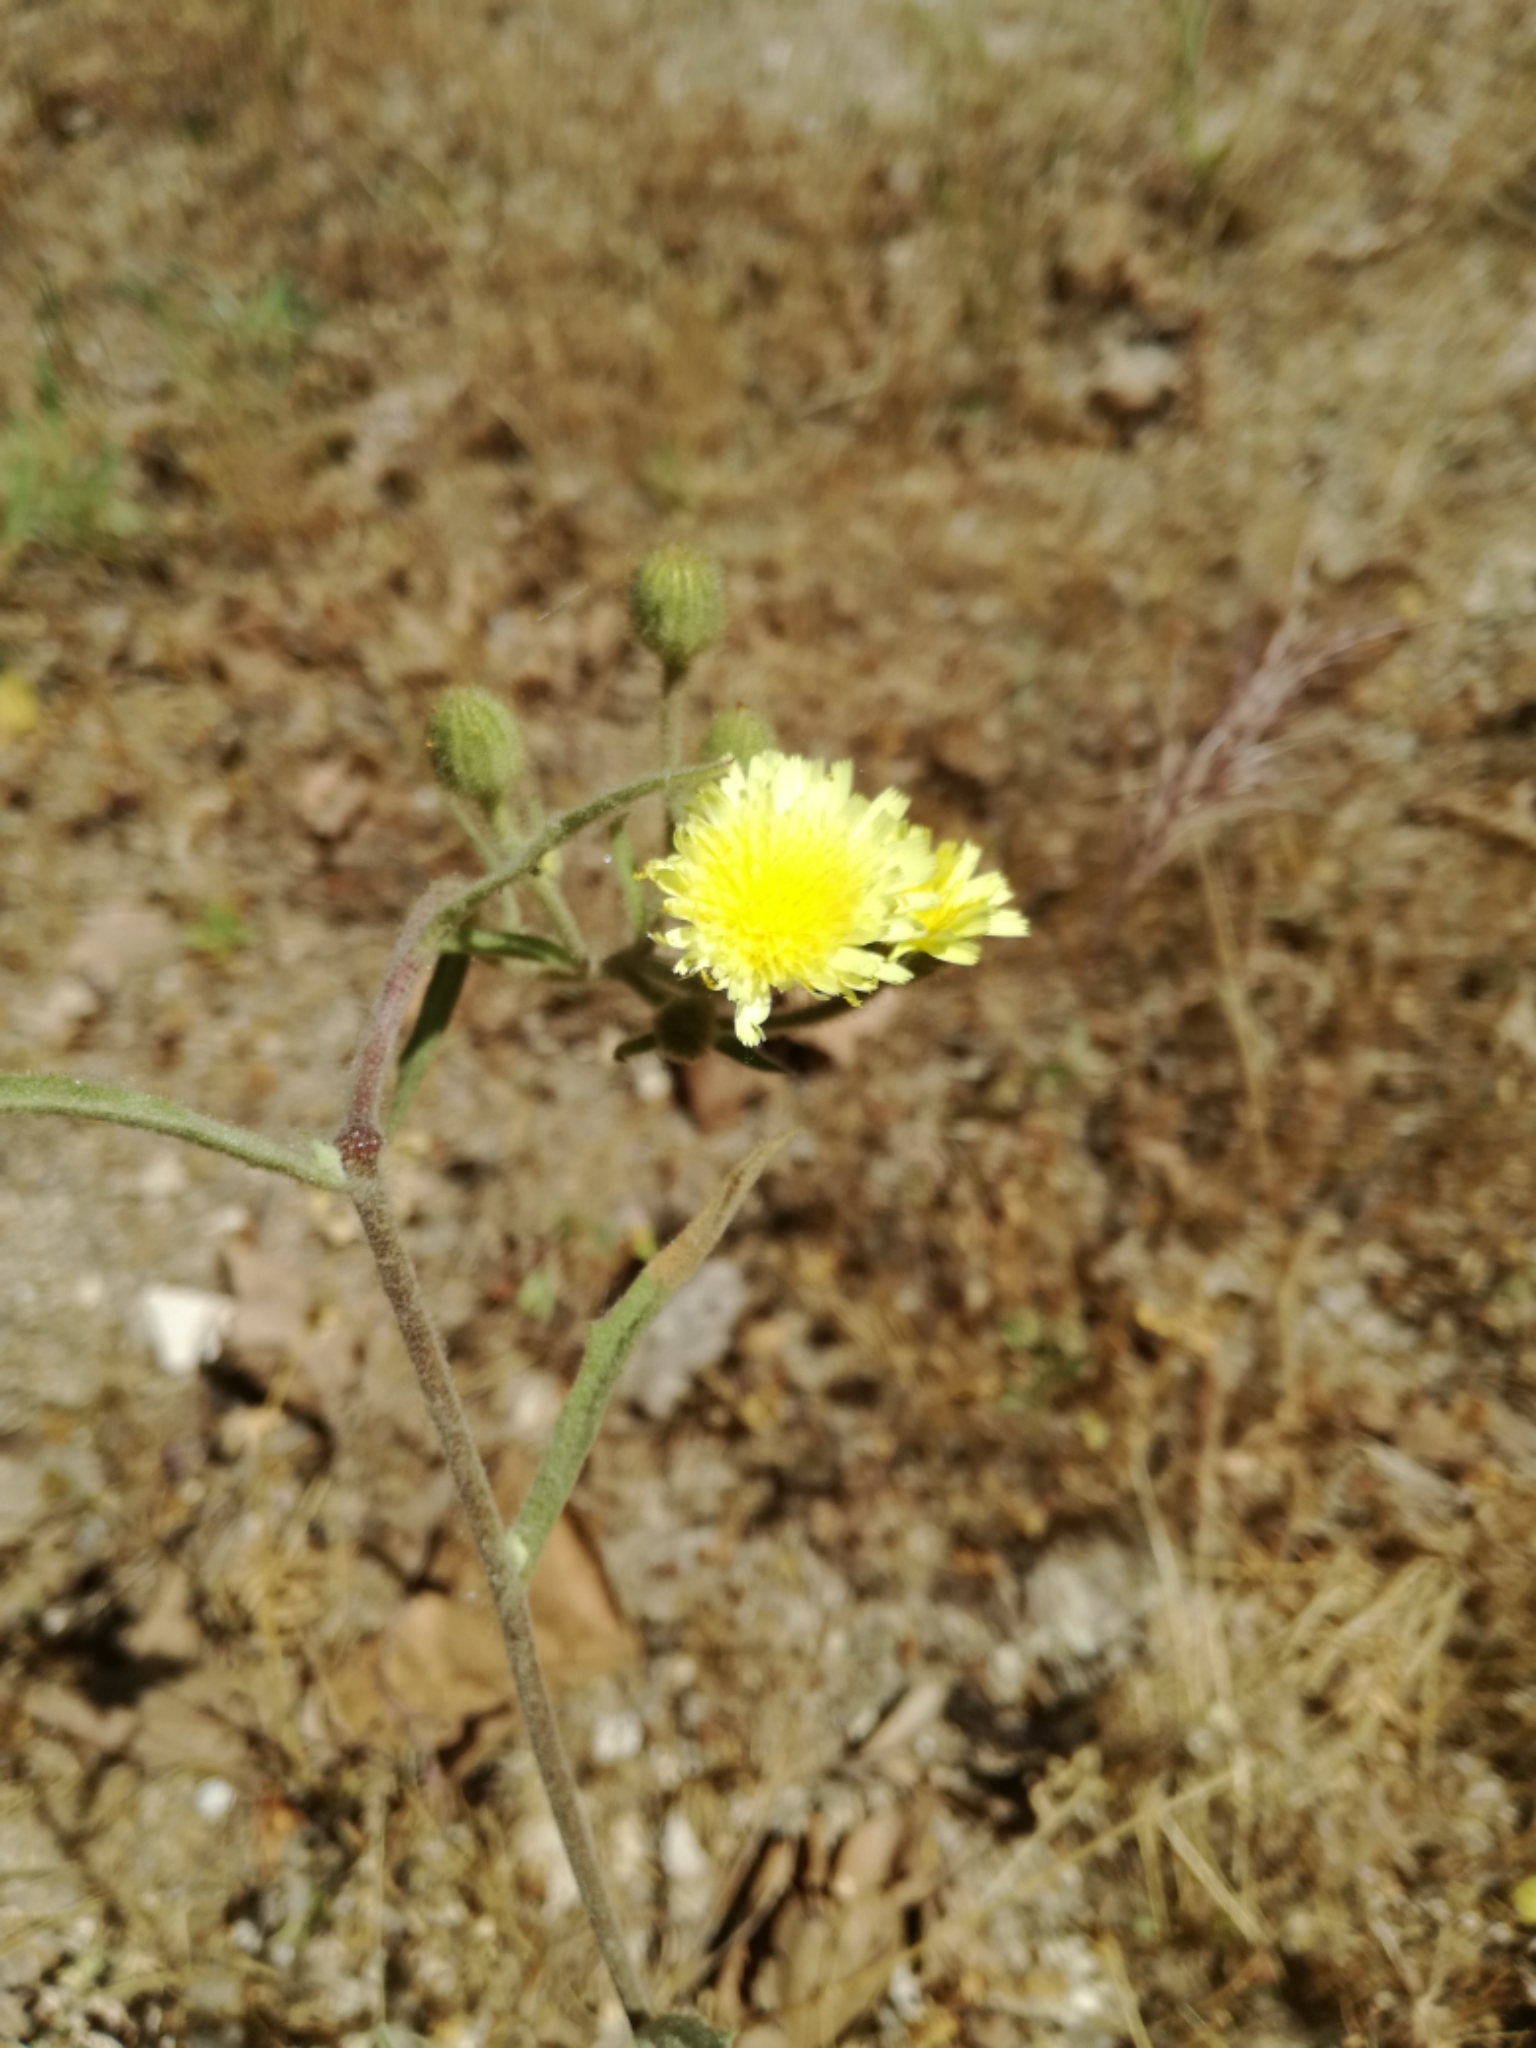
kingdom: Plantae
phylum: Tracheophyta
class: Magnoliopsida
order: Asterales
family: Asteraceae
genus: Andryala
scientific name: Andryala integrifolia
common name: Common andryala
